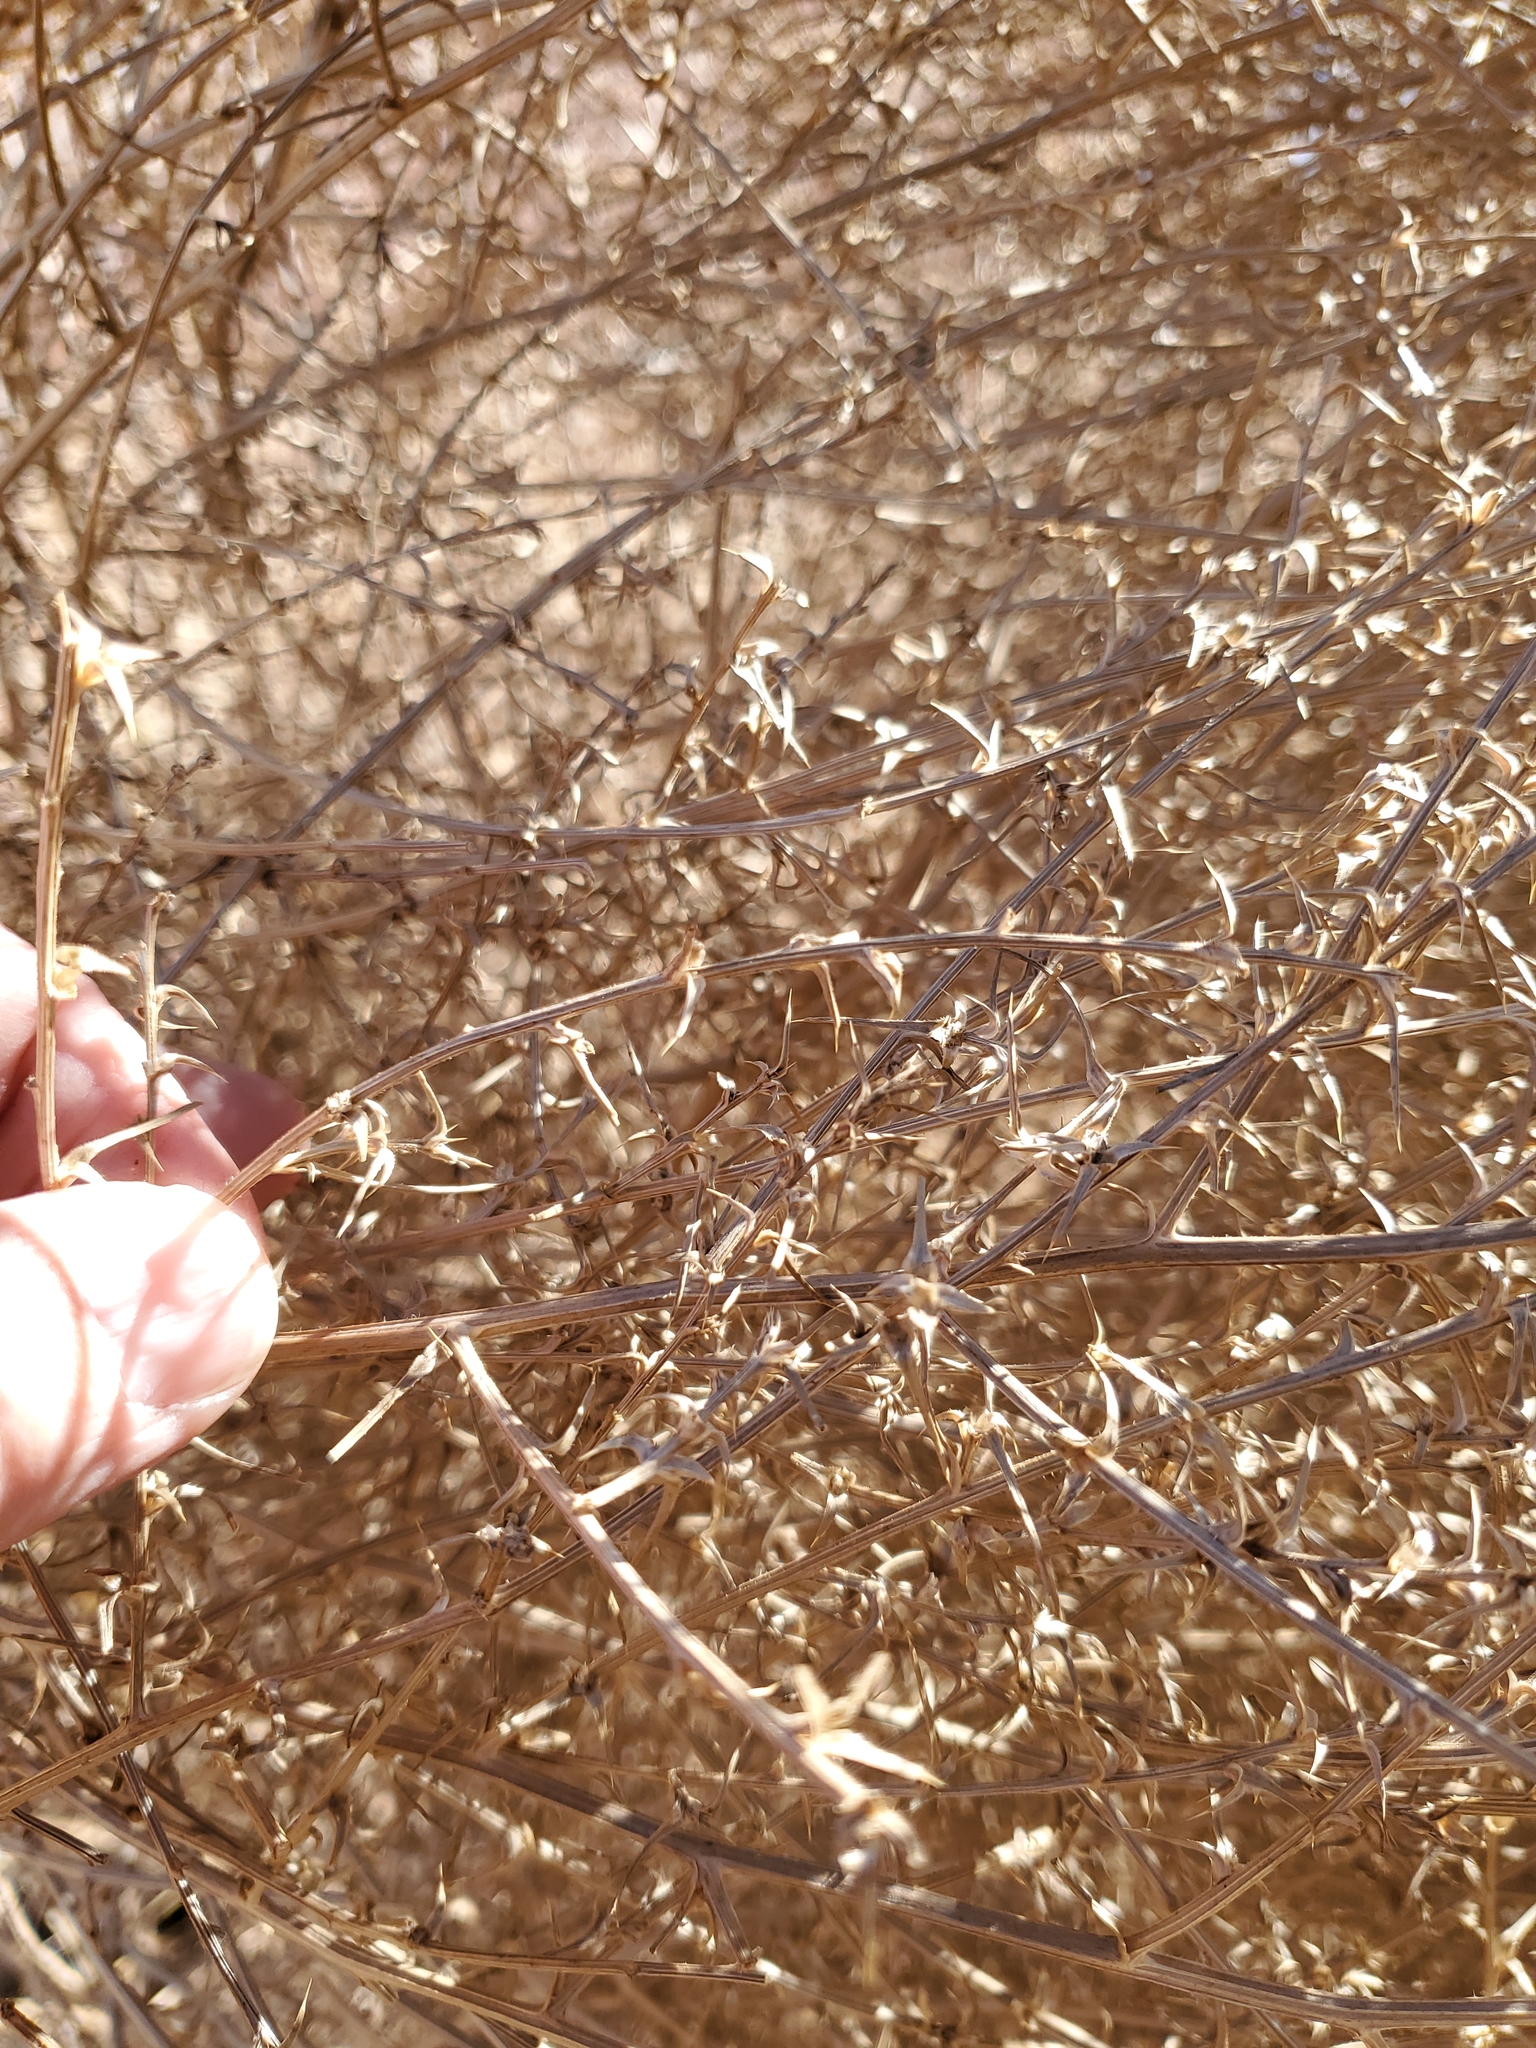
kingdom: Plantae
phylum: Tracheophyta
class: Magnoliopsida
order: Caryophyllales
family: Amaranthaceae
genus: Salsola
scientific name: Salsola tragus
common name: Prickly russian thistle
